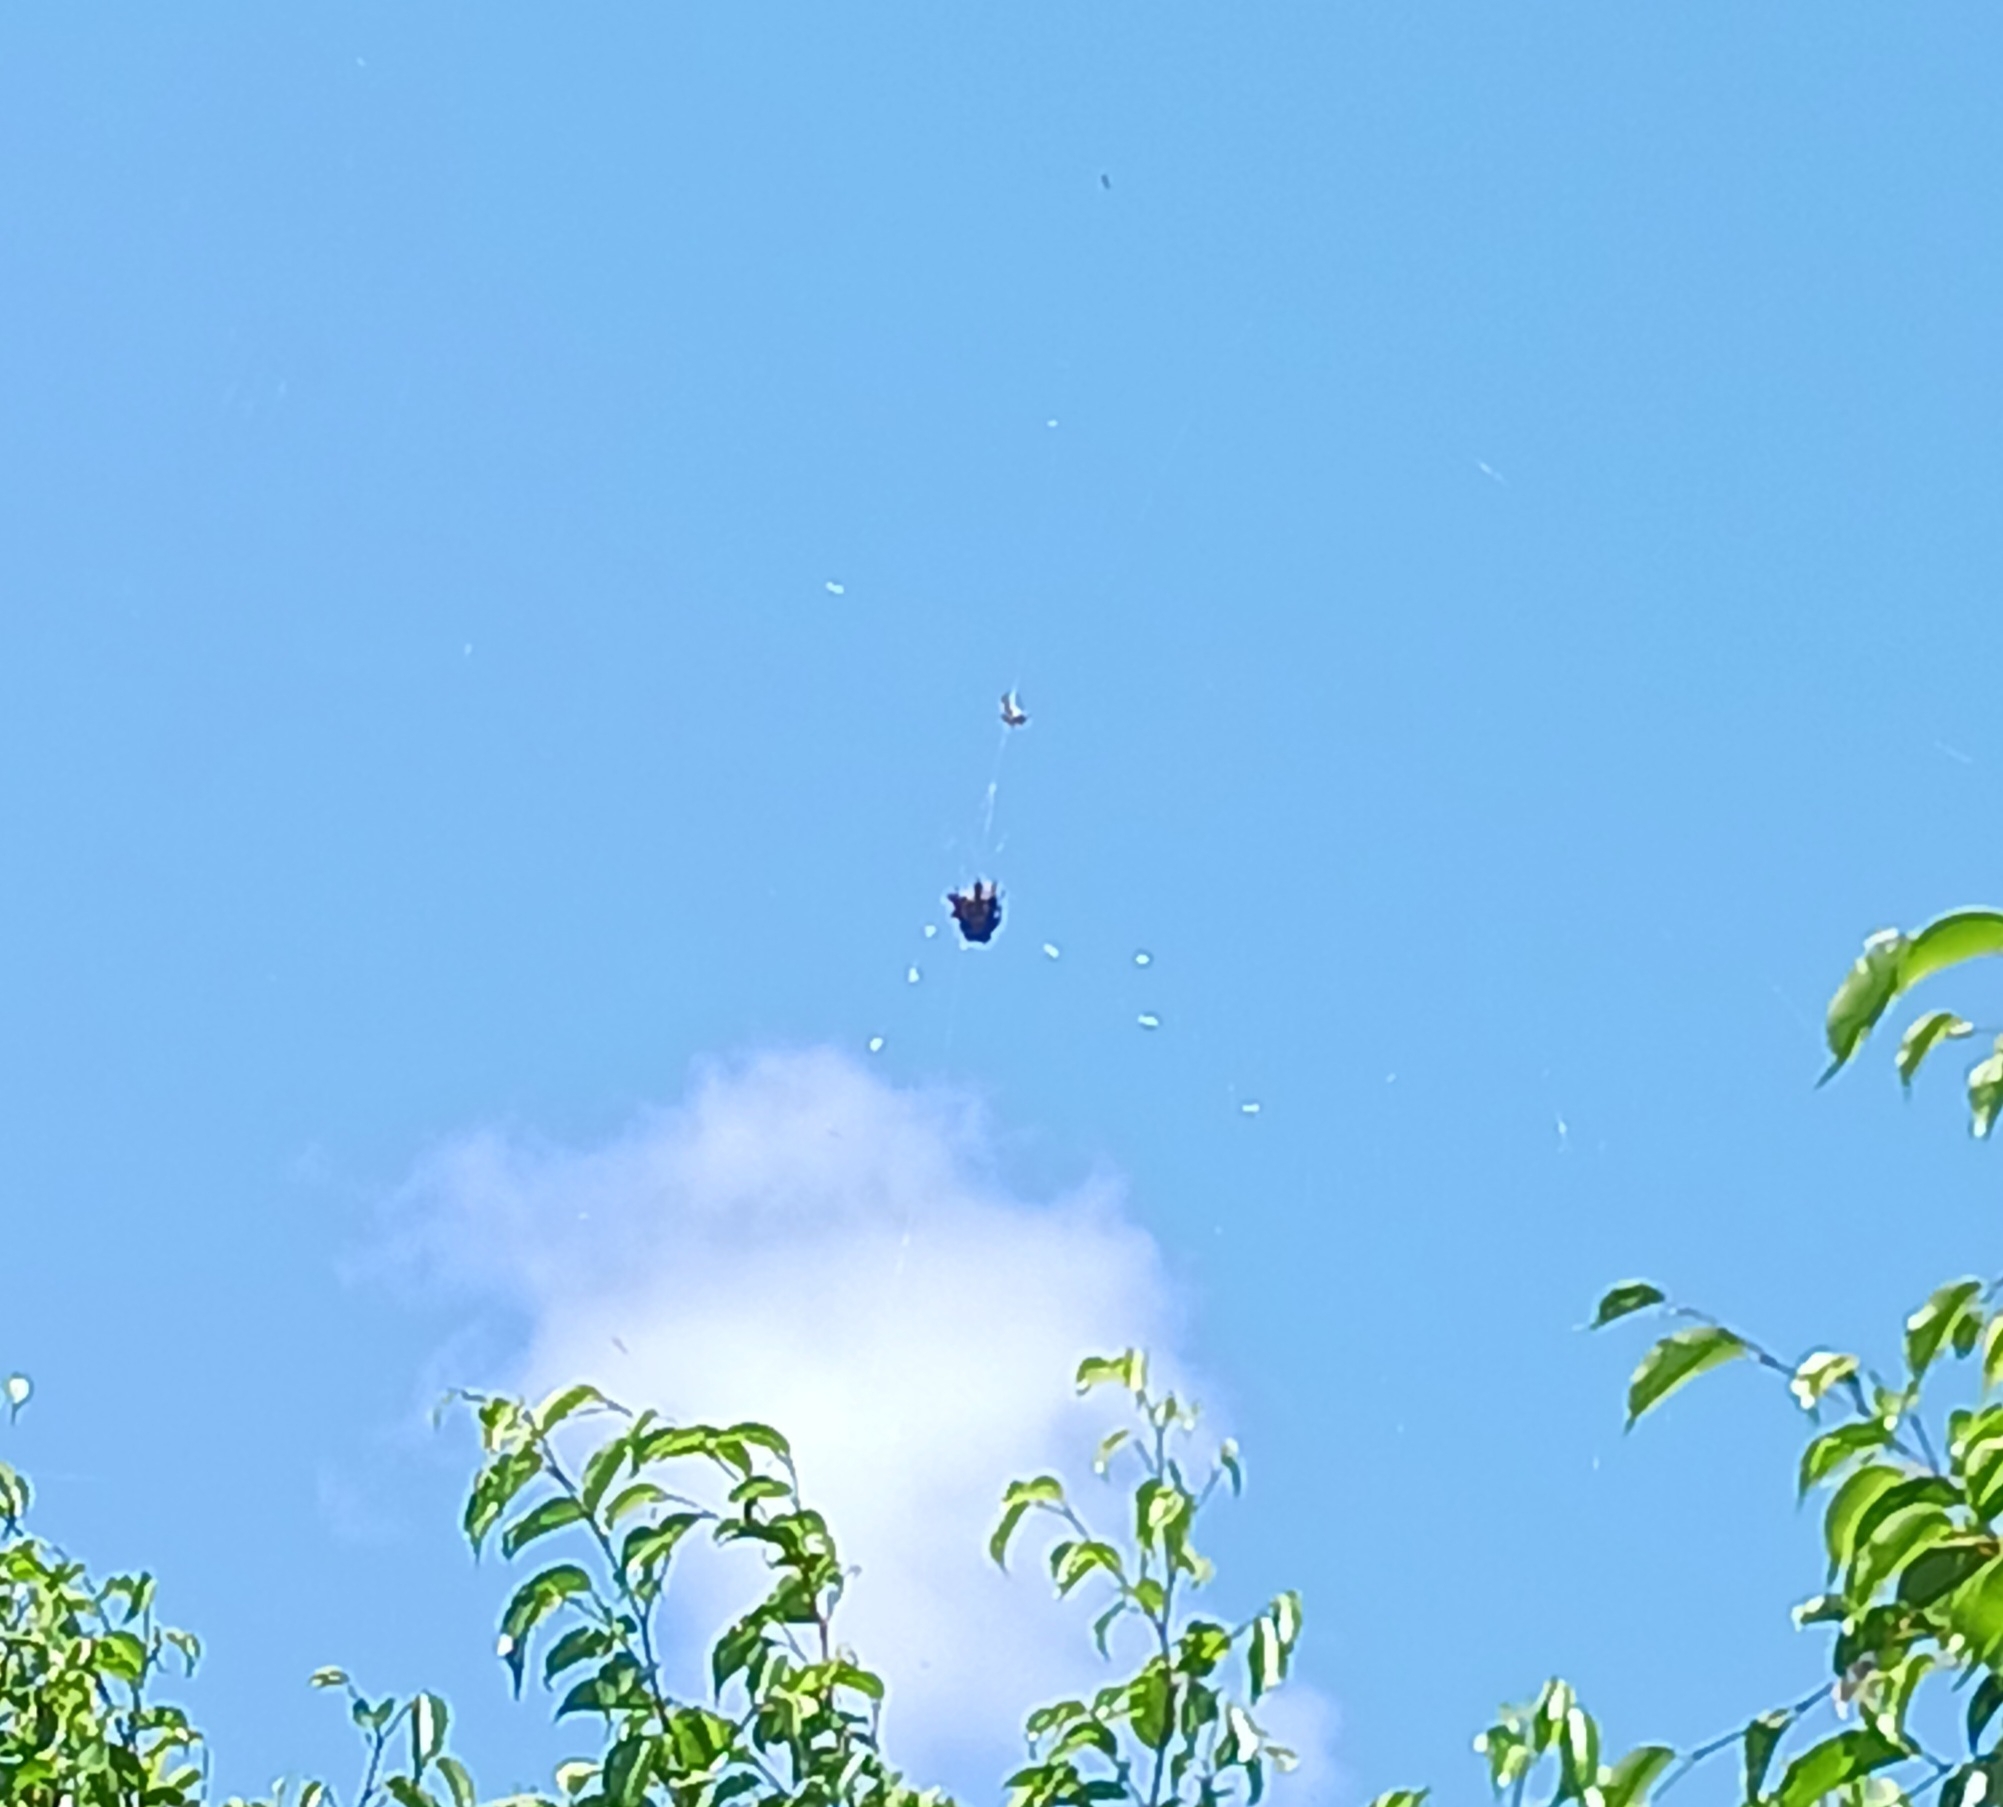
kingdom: Animalia
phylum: Arthropoda
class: Arachnida
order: Araneae
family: Araneidae
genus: Gasteracantha
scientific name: Gasteracantha cancriformis
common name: Orb weavers
